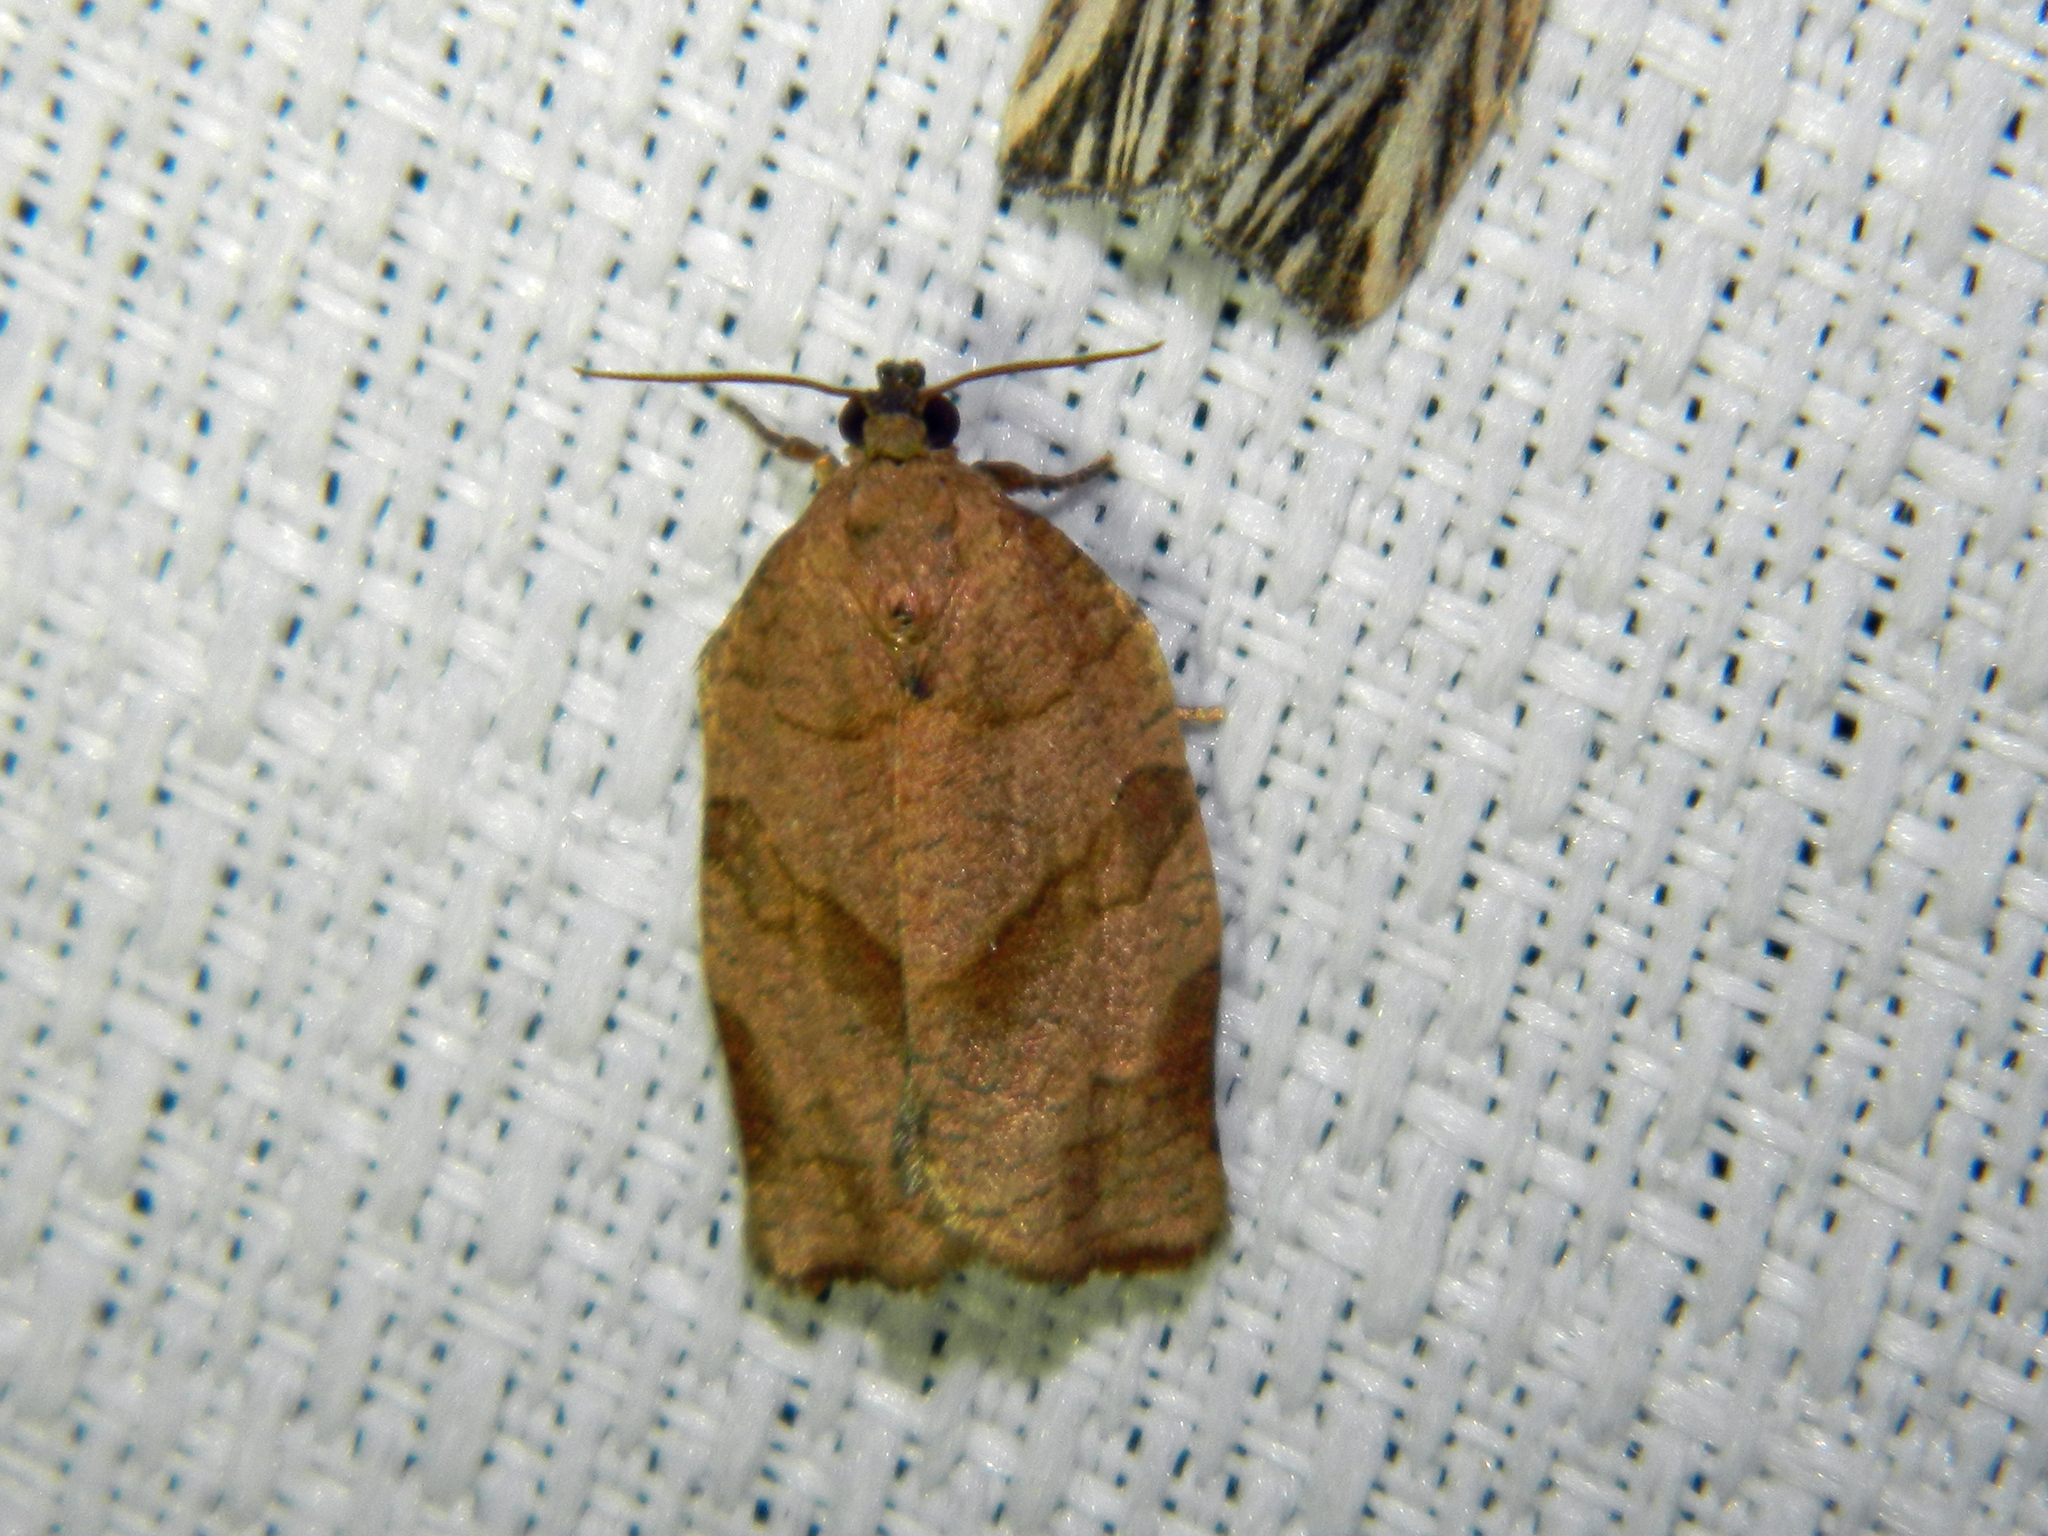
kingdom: Animalia
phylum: Arthropoda
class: Insecta
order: Lepidoptera
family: Tortricidae
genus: Choristoneura
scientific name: Choristoneura rosaceana
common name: Oblique-banded leafroller moth
